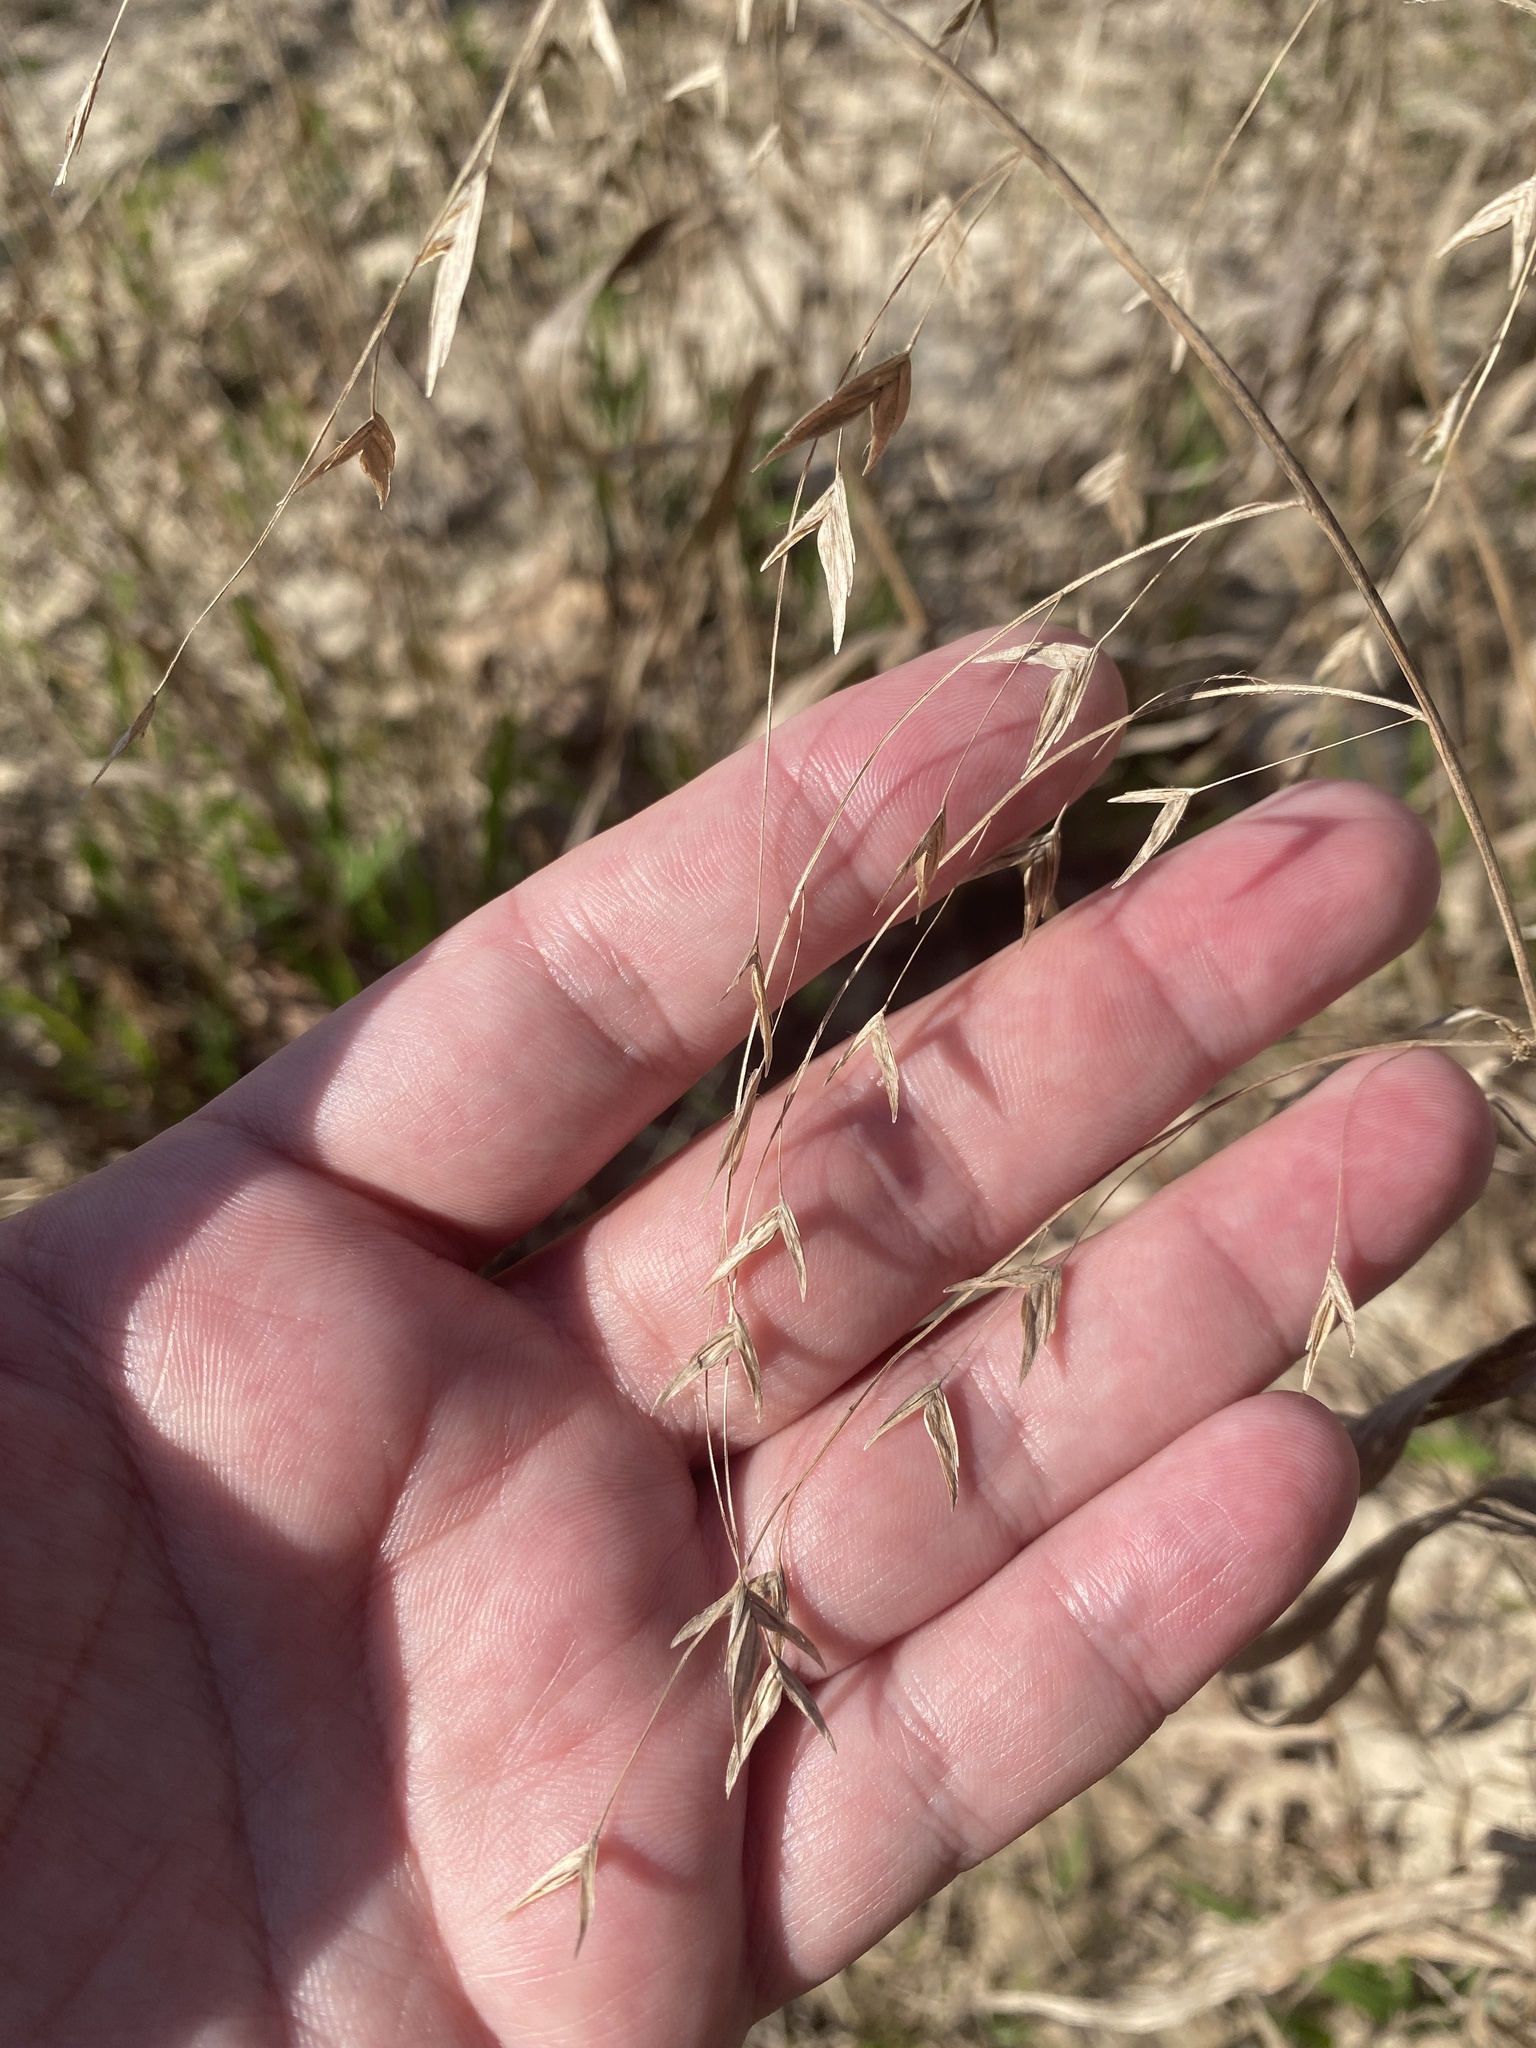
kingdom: Plantae
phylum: Tracheophyta
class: Liliopsida
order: Poales
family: Poaceae
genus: Chasmanthium
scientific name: Chasmanthium latifolium
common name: Broad-leaved chasmanthium
